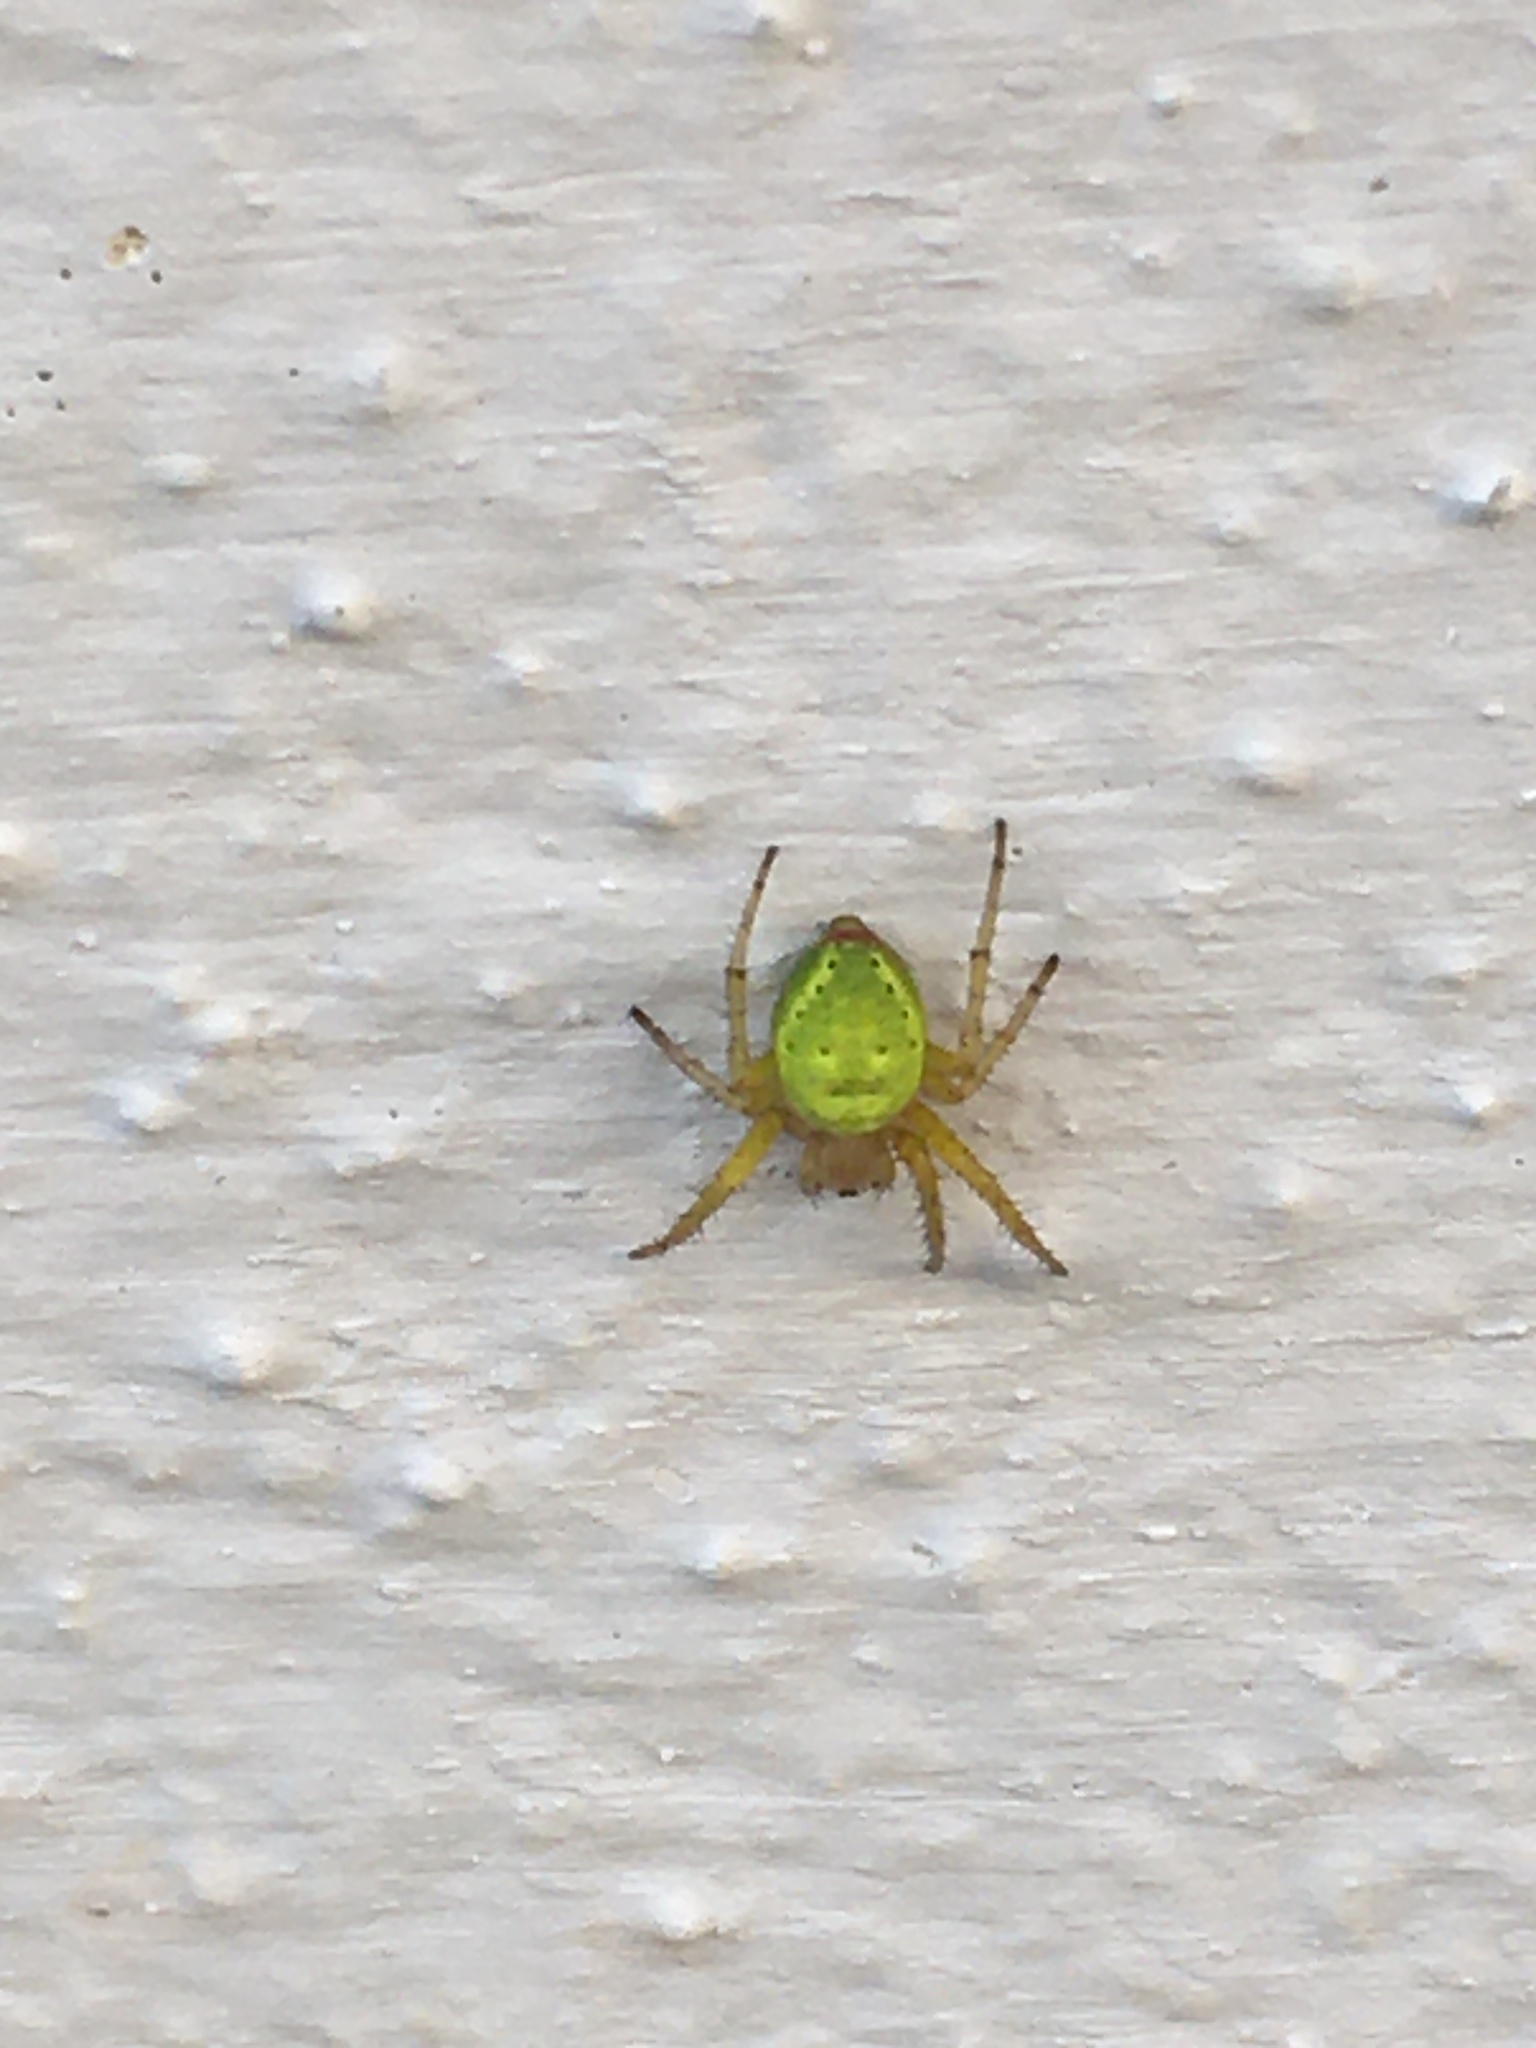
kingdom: Animalia
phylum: Arthropoda
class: Arachnida
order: Araneae
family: Araneidae
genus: Araniella
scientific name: Araniella
